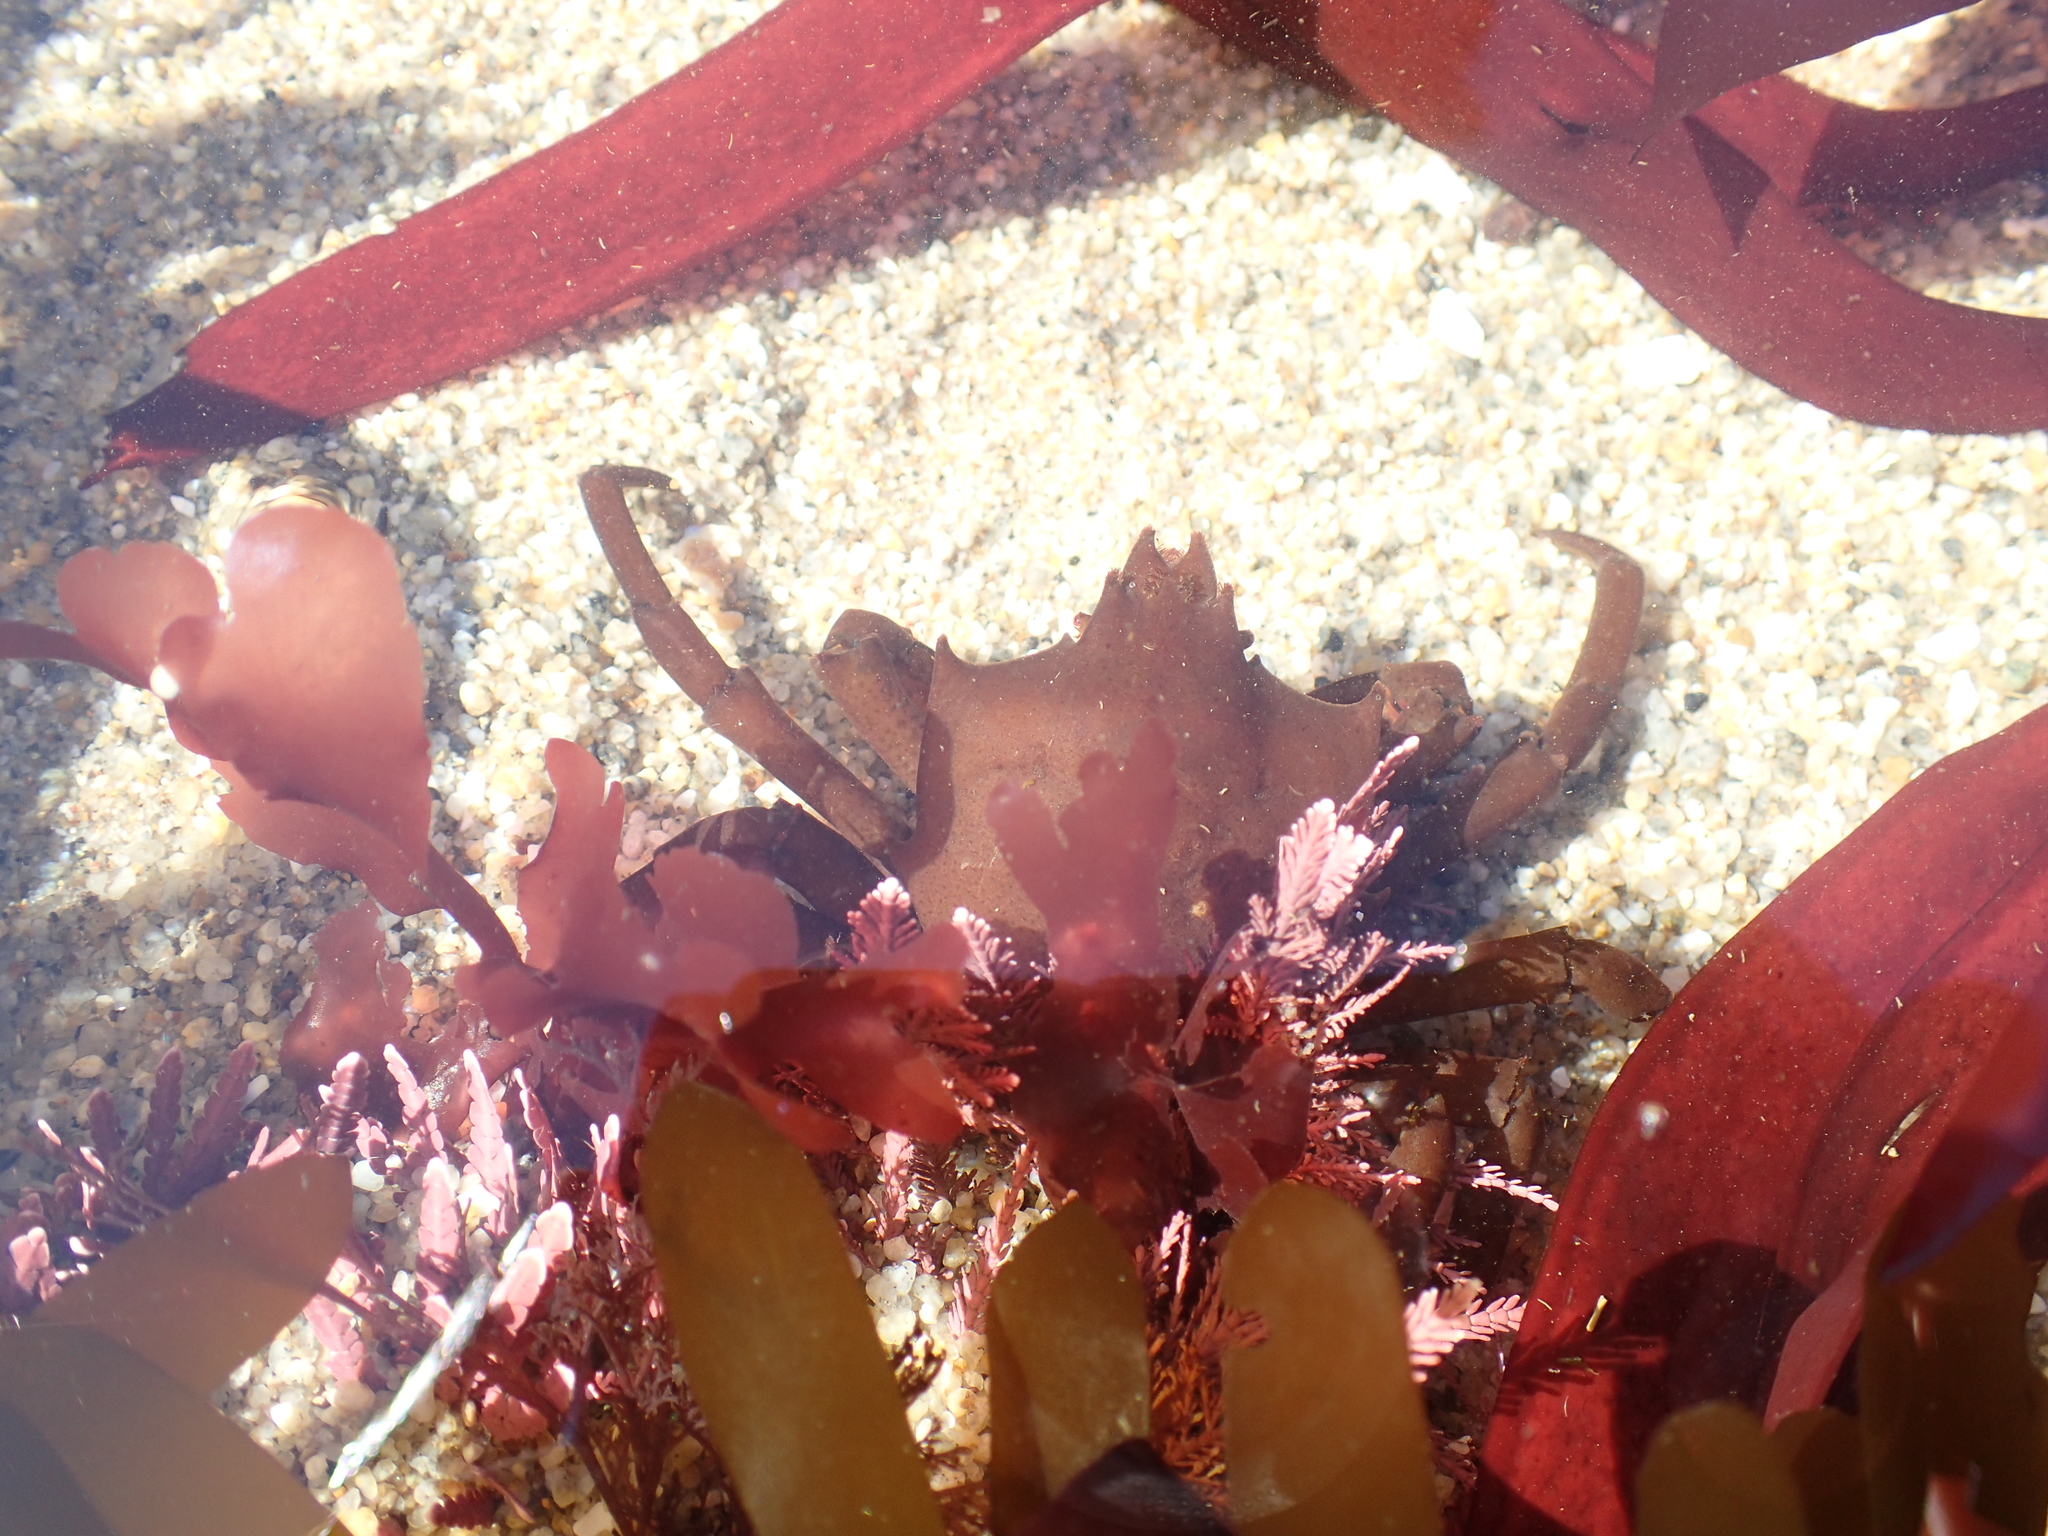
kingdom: Animalia
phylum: Arthropoda
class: Malacostraca
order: Decapoda
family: Epialtidae
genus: Pugettia
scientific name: Pugettia producta
